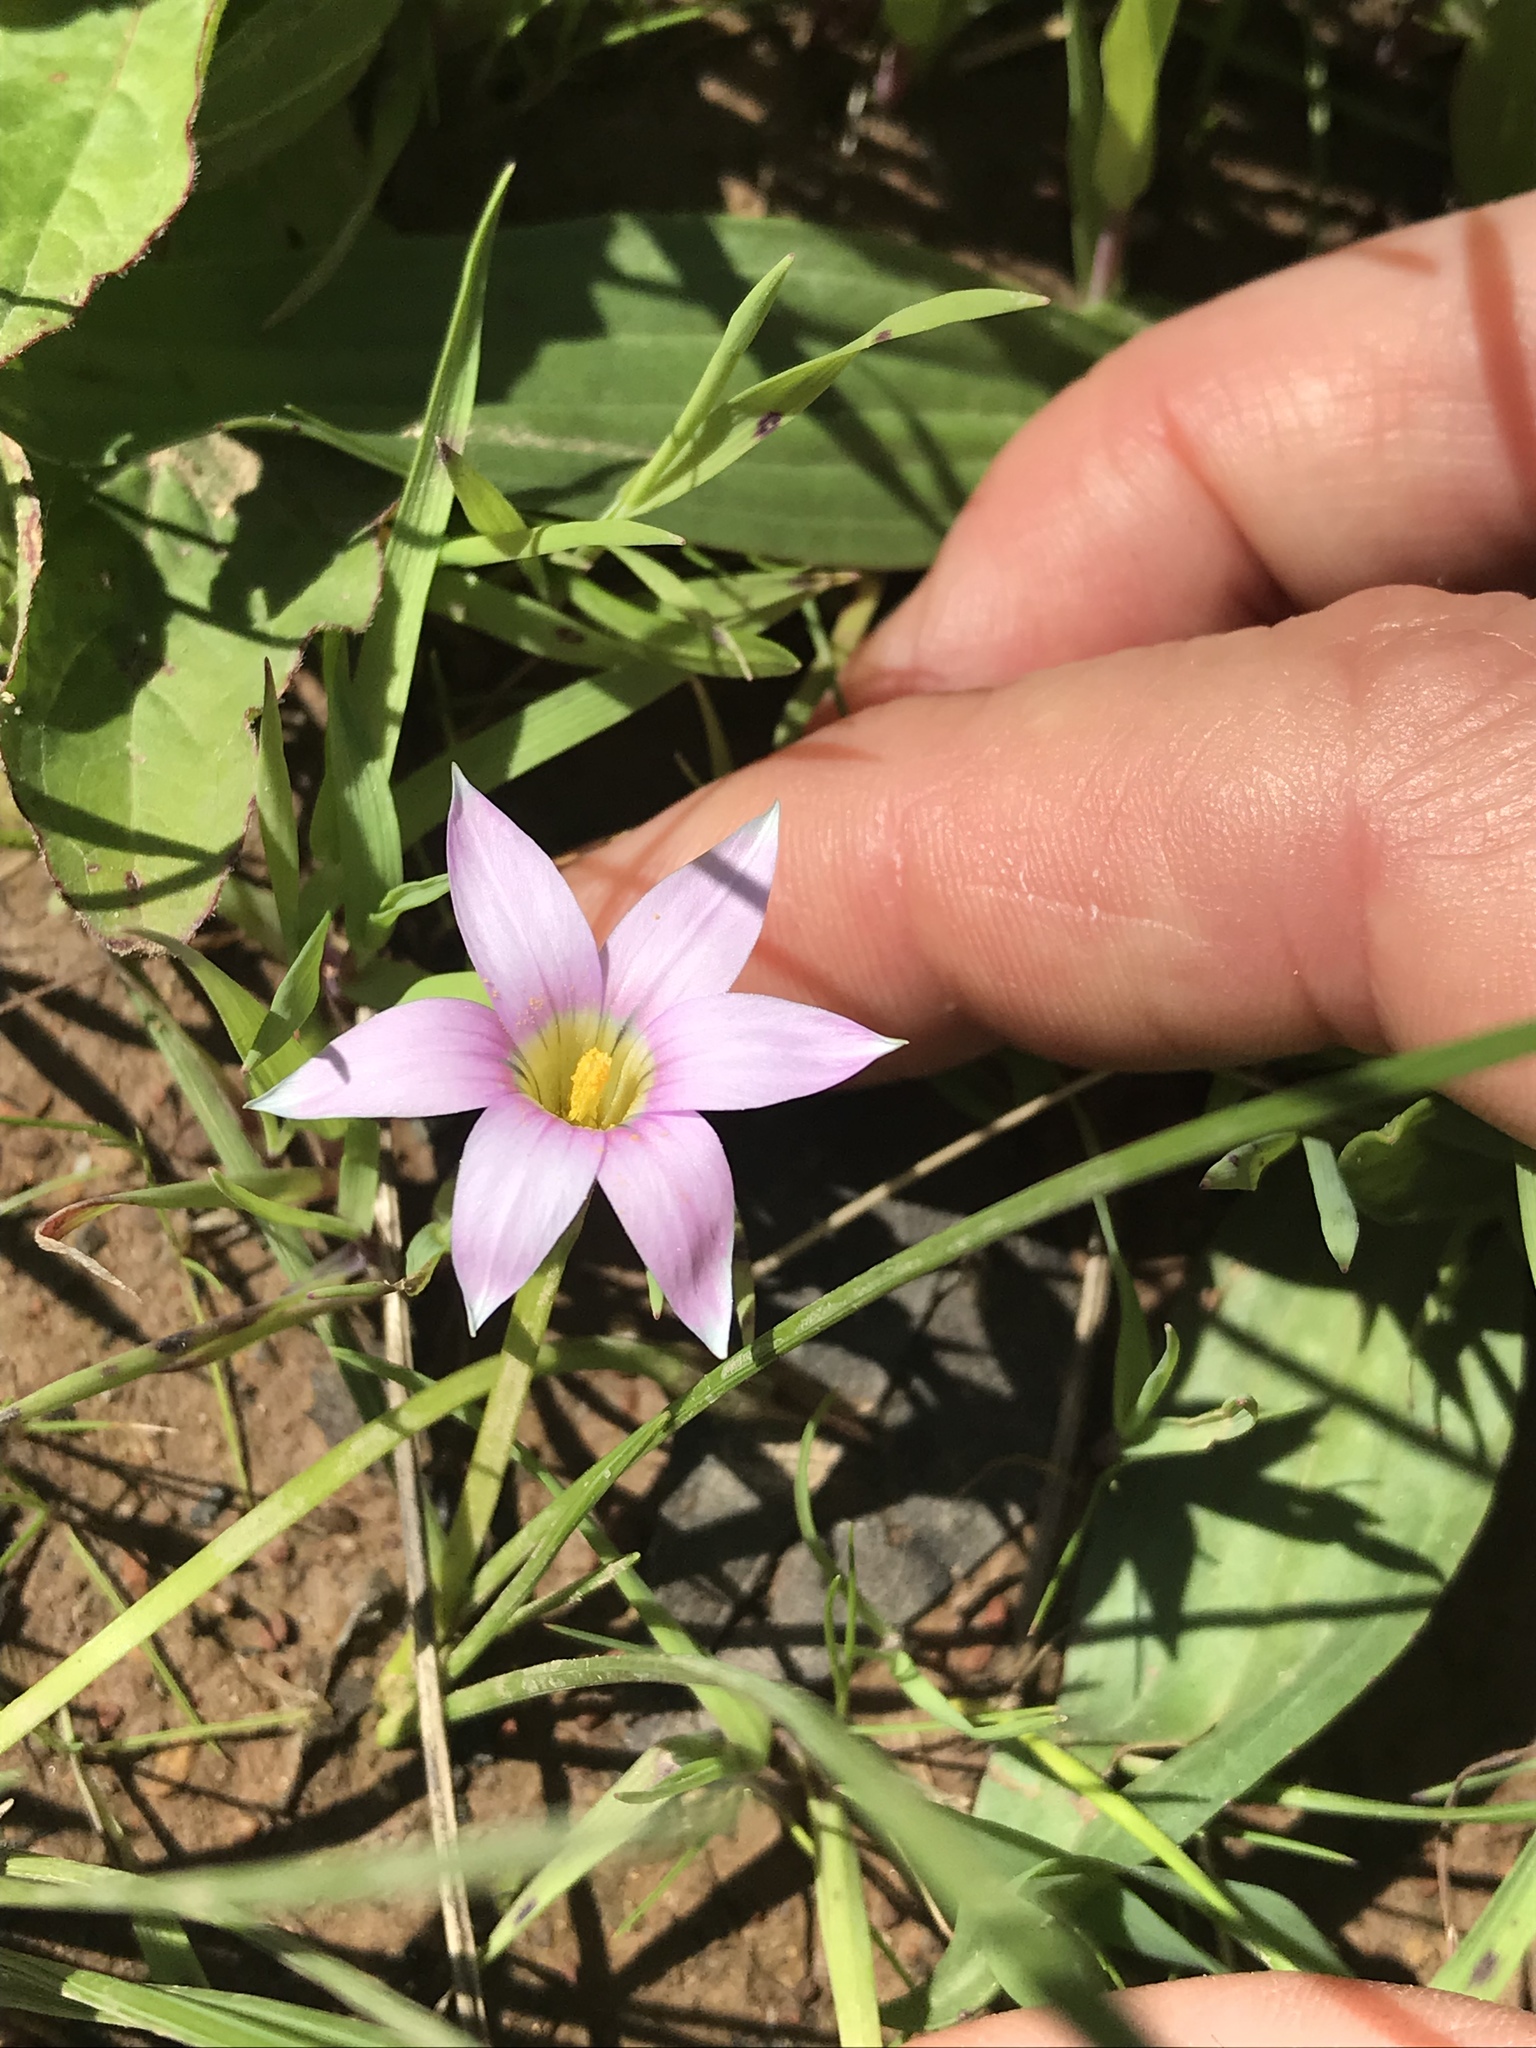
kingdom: Plantae
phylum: Tracheophyta
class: Liliopsida
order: Asparagales
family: Iridaceae
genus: Romulea
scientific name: Romulea rosea
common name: Oniongrass
